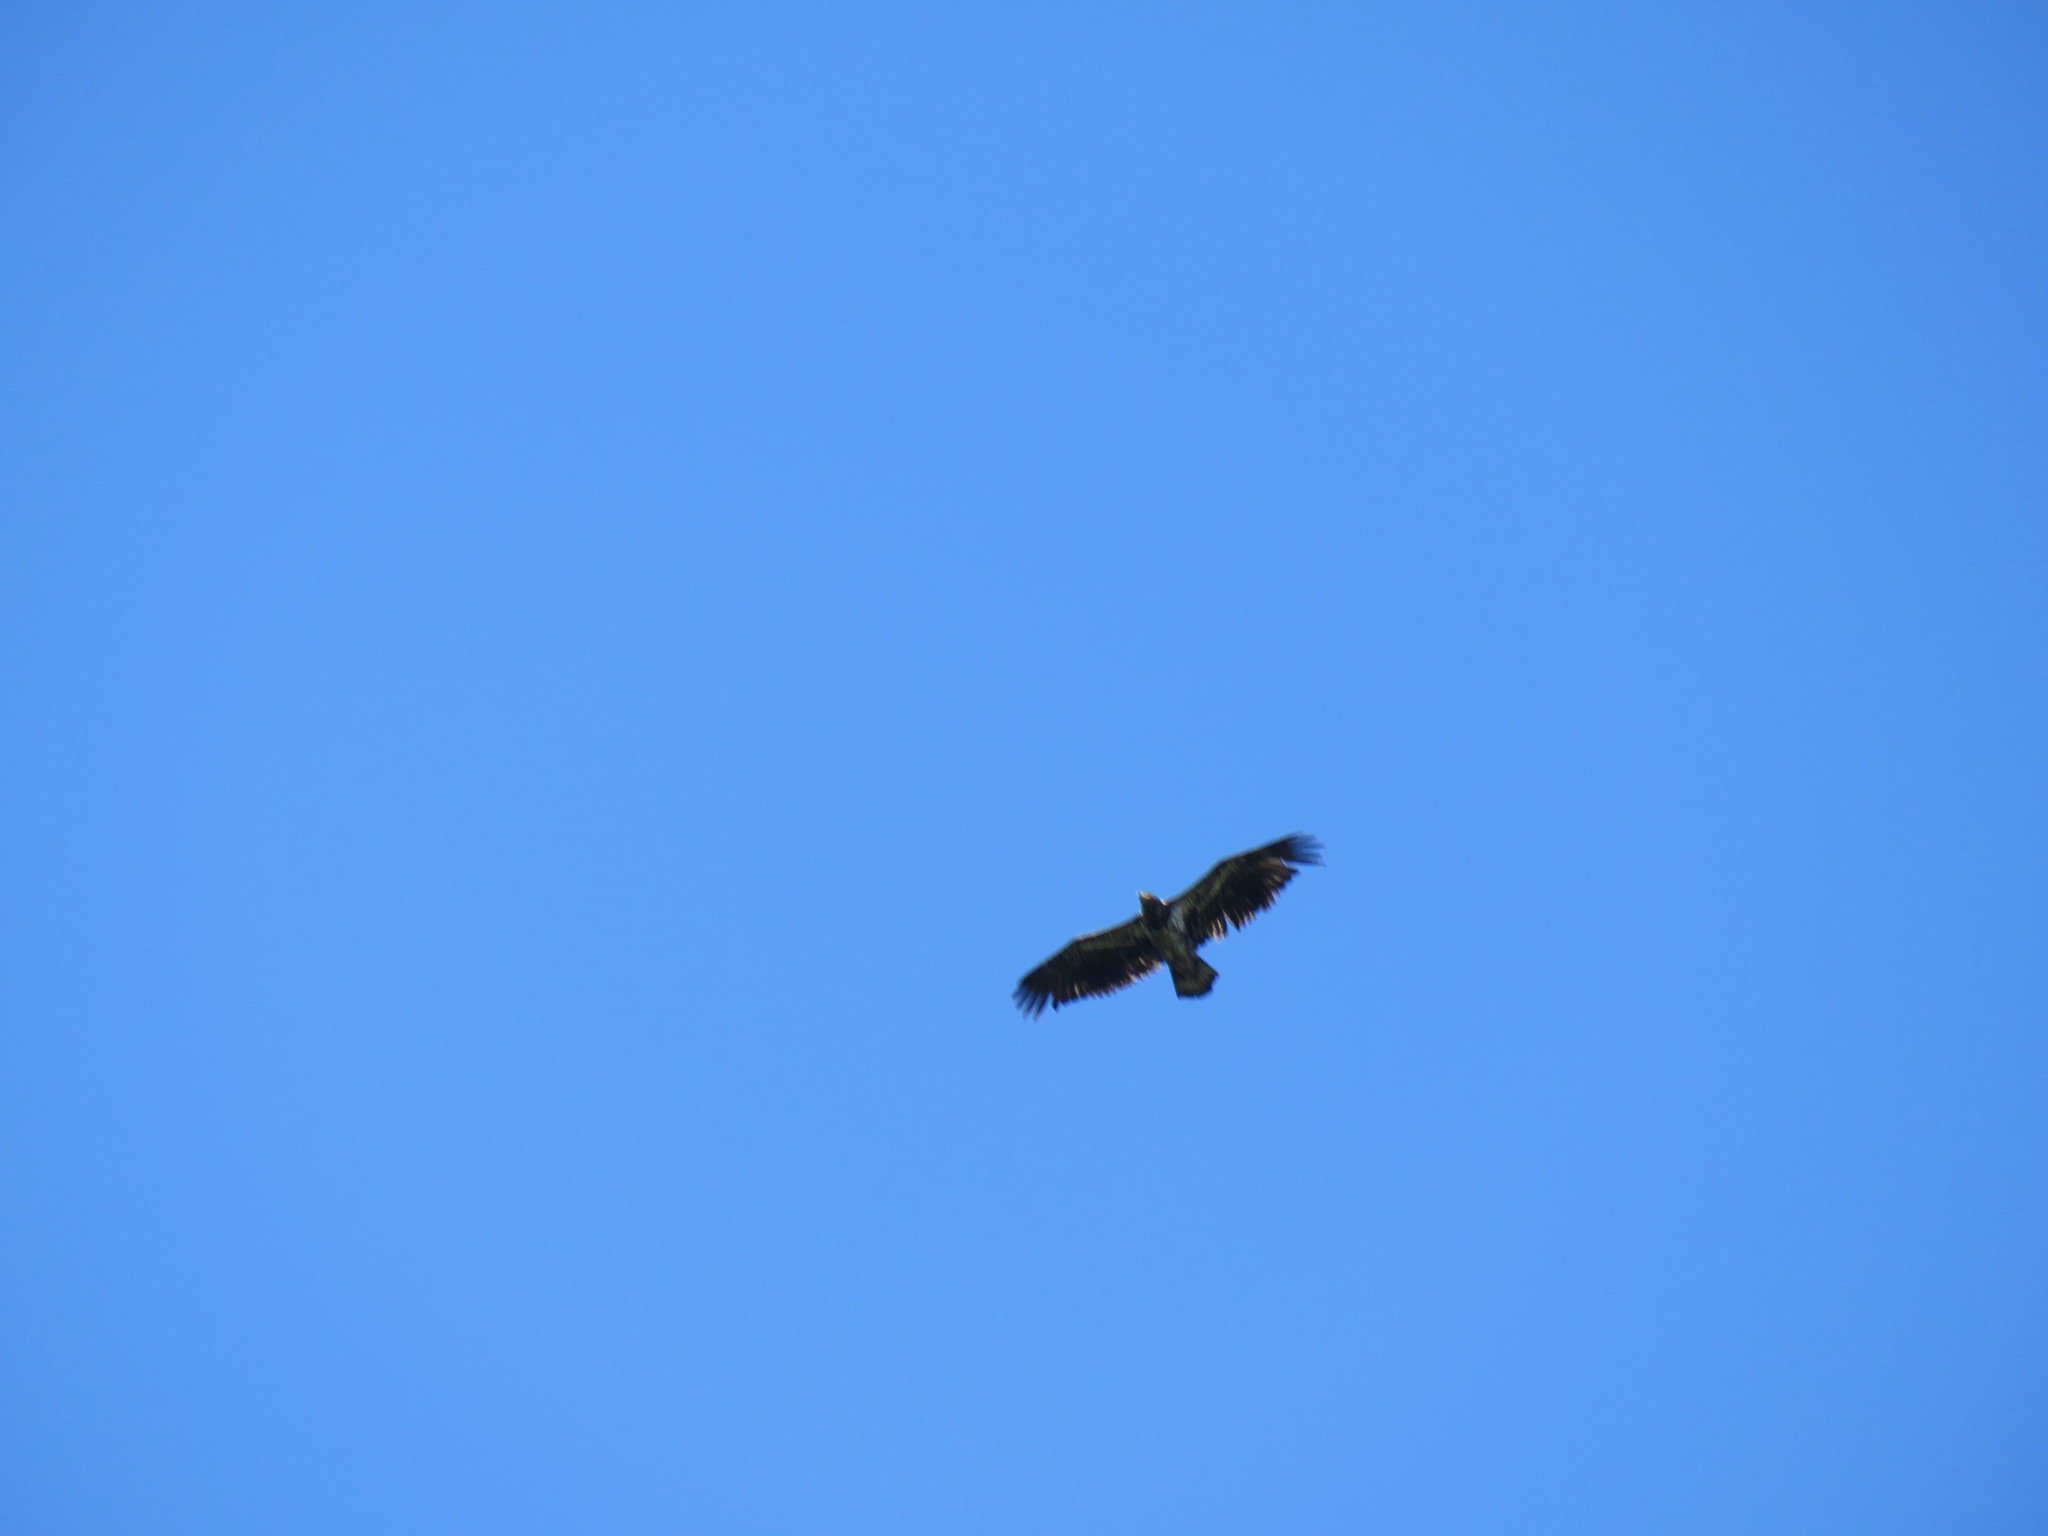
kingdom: Animalia
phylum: Chordata
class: Aves
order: Accipitriformes
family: Accipitridae
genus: Haliaeetus
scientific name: Haliaeetus leucocephalus
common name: Bald eagle
